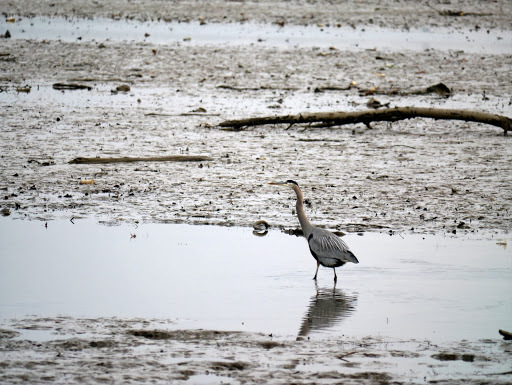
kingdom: Animalia
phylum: Chordata
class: Aves
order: Pelecaniformes
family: Ardeidae
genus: Ardea
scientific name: Ardea herodias
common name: Great blue heron
